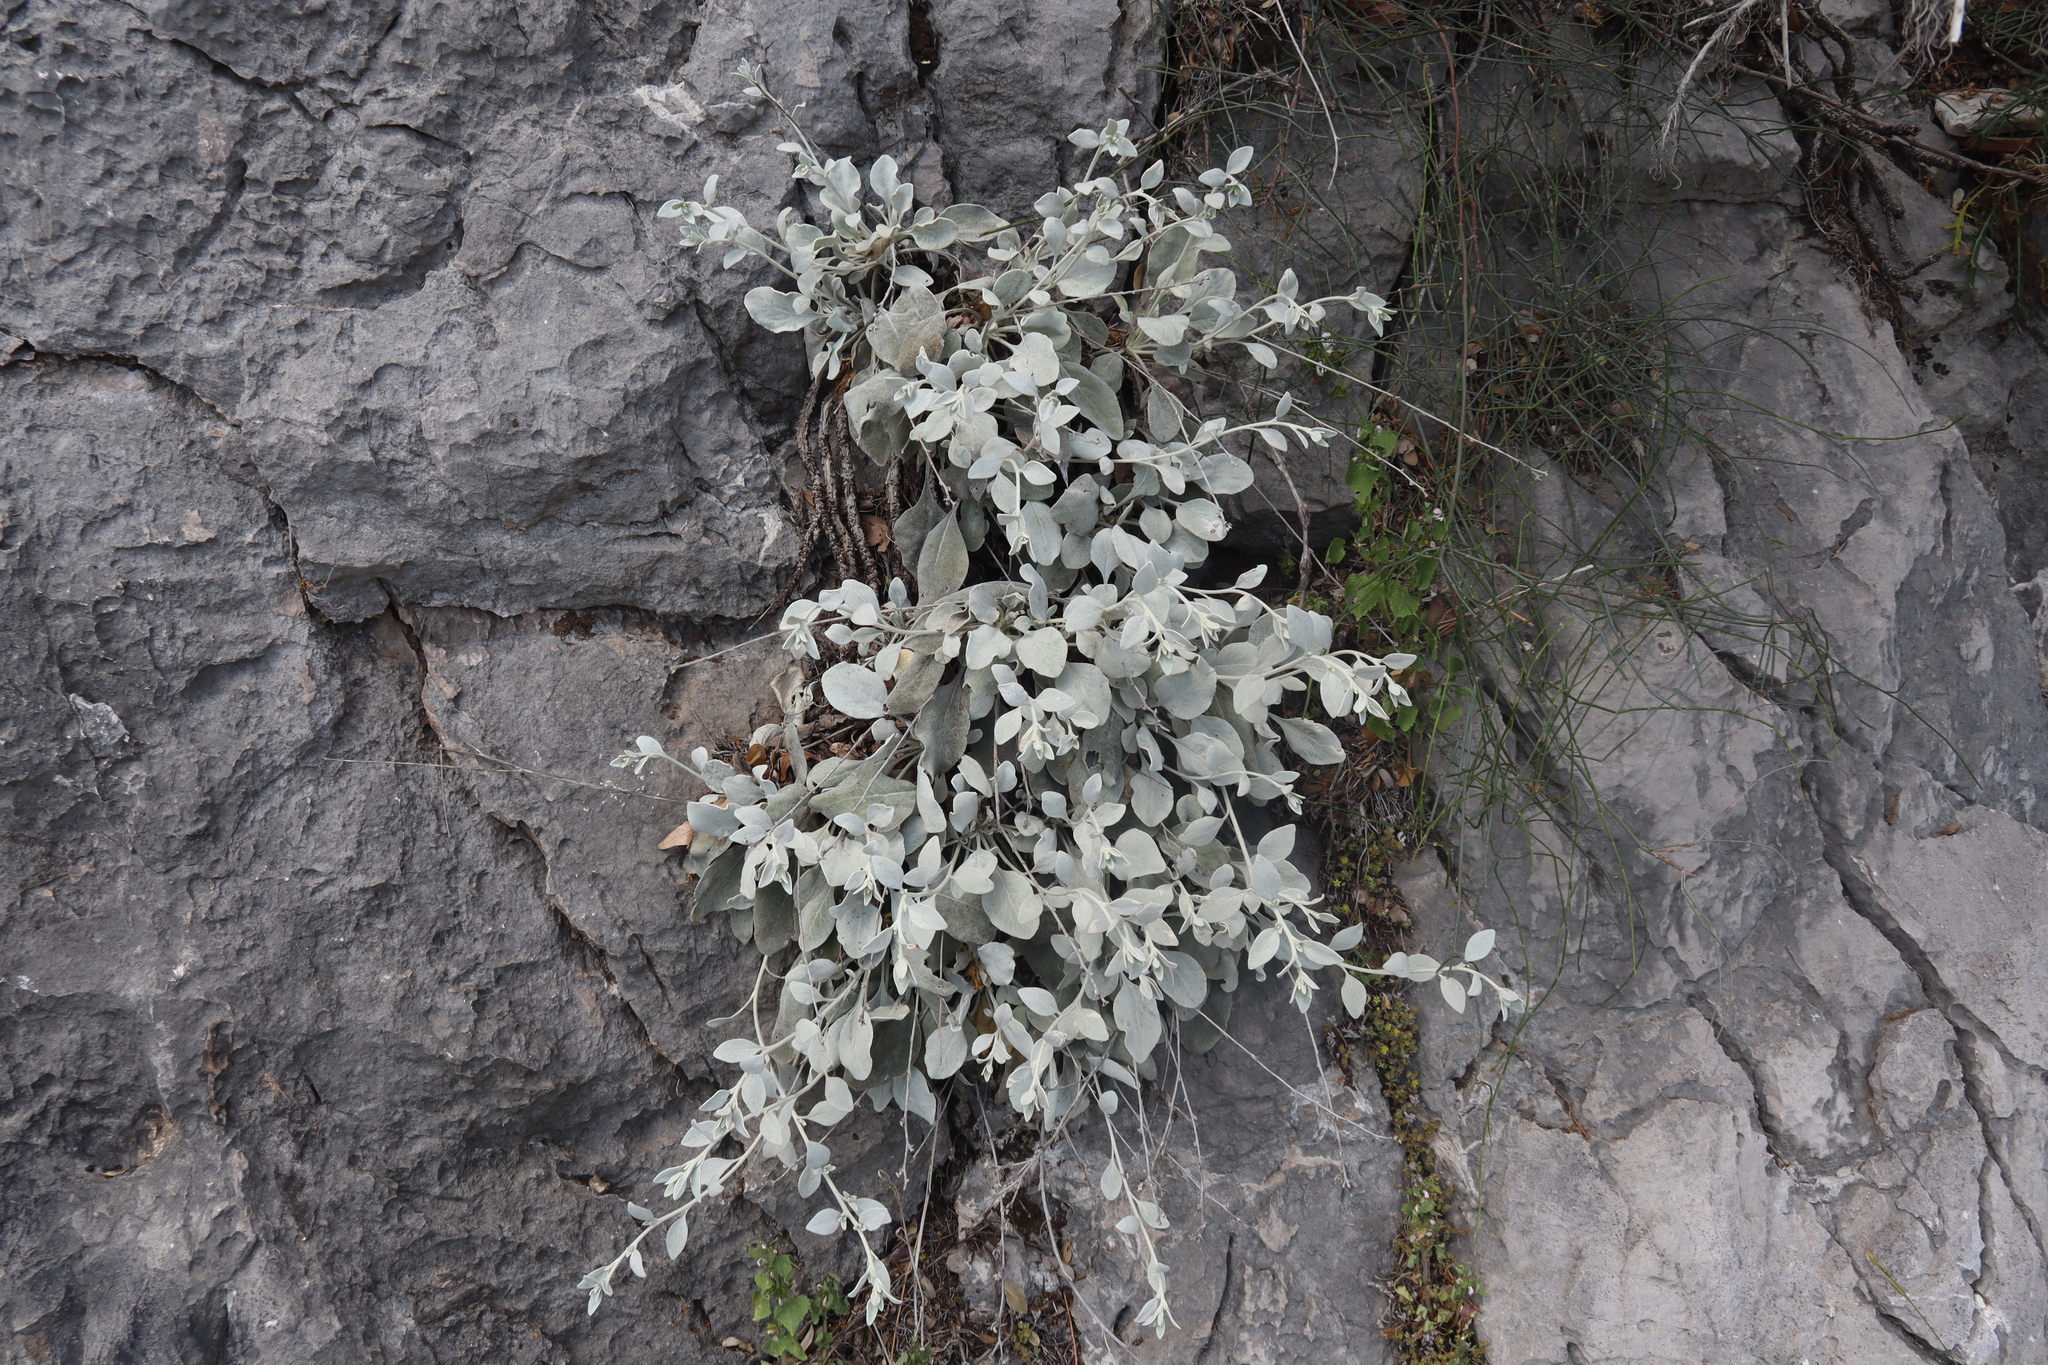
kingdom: Plantae
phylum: Tracheophyta
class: Magnoliopsida
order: Asterales
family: Asteraceae
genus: Pentanema
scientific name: Pentanema verbascifolium
